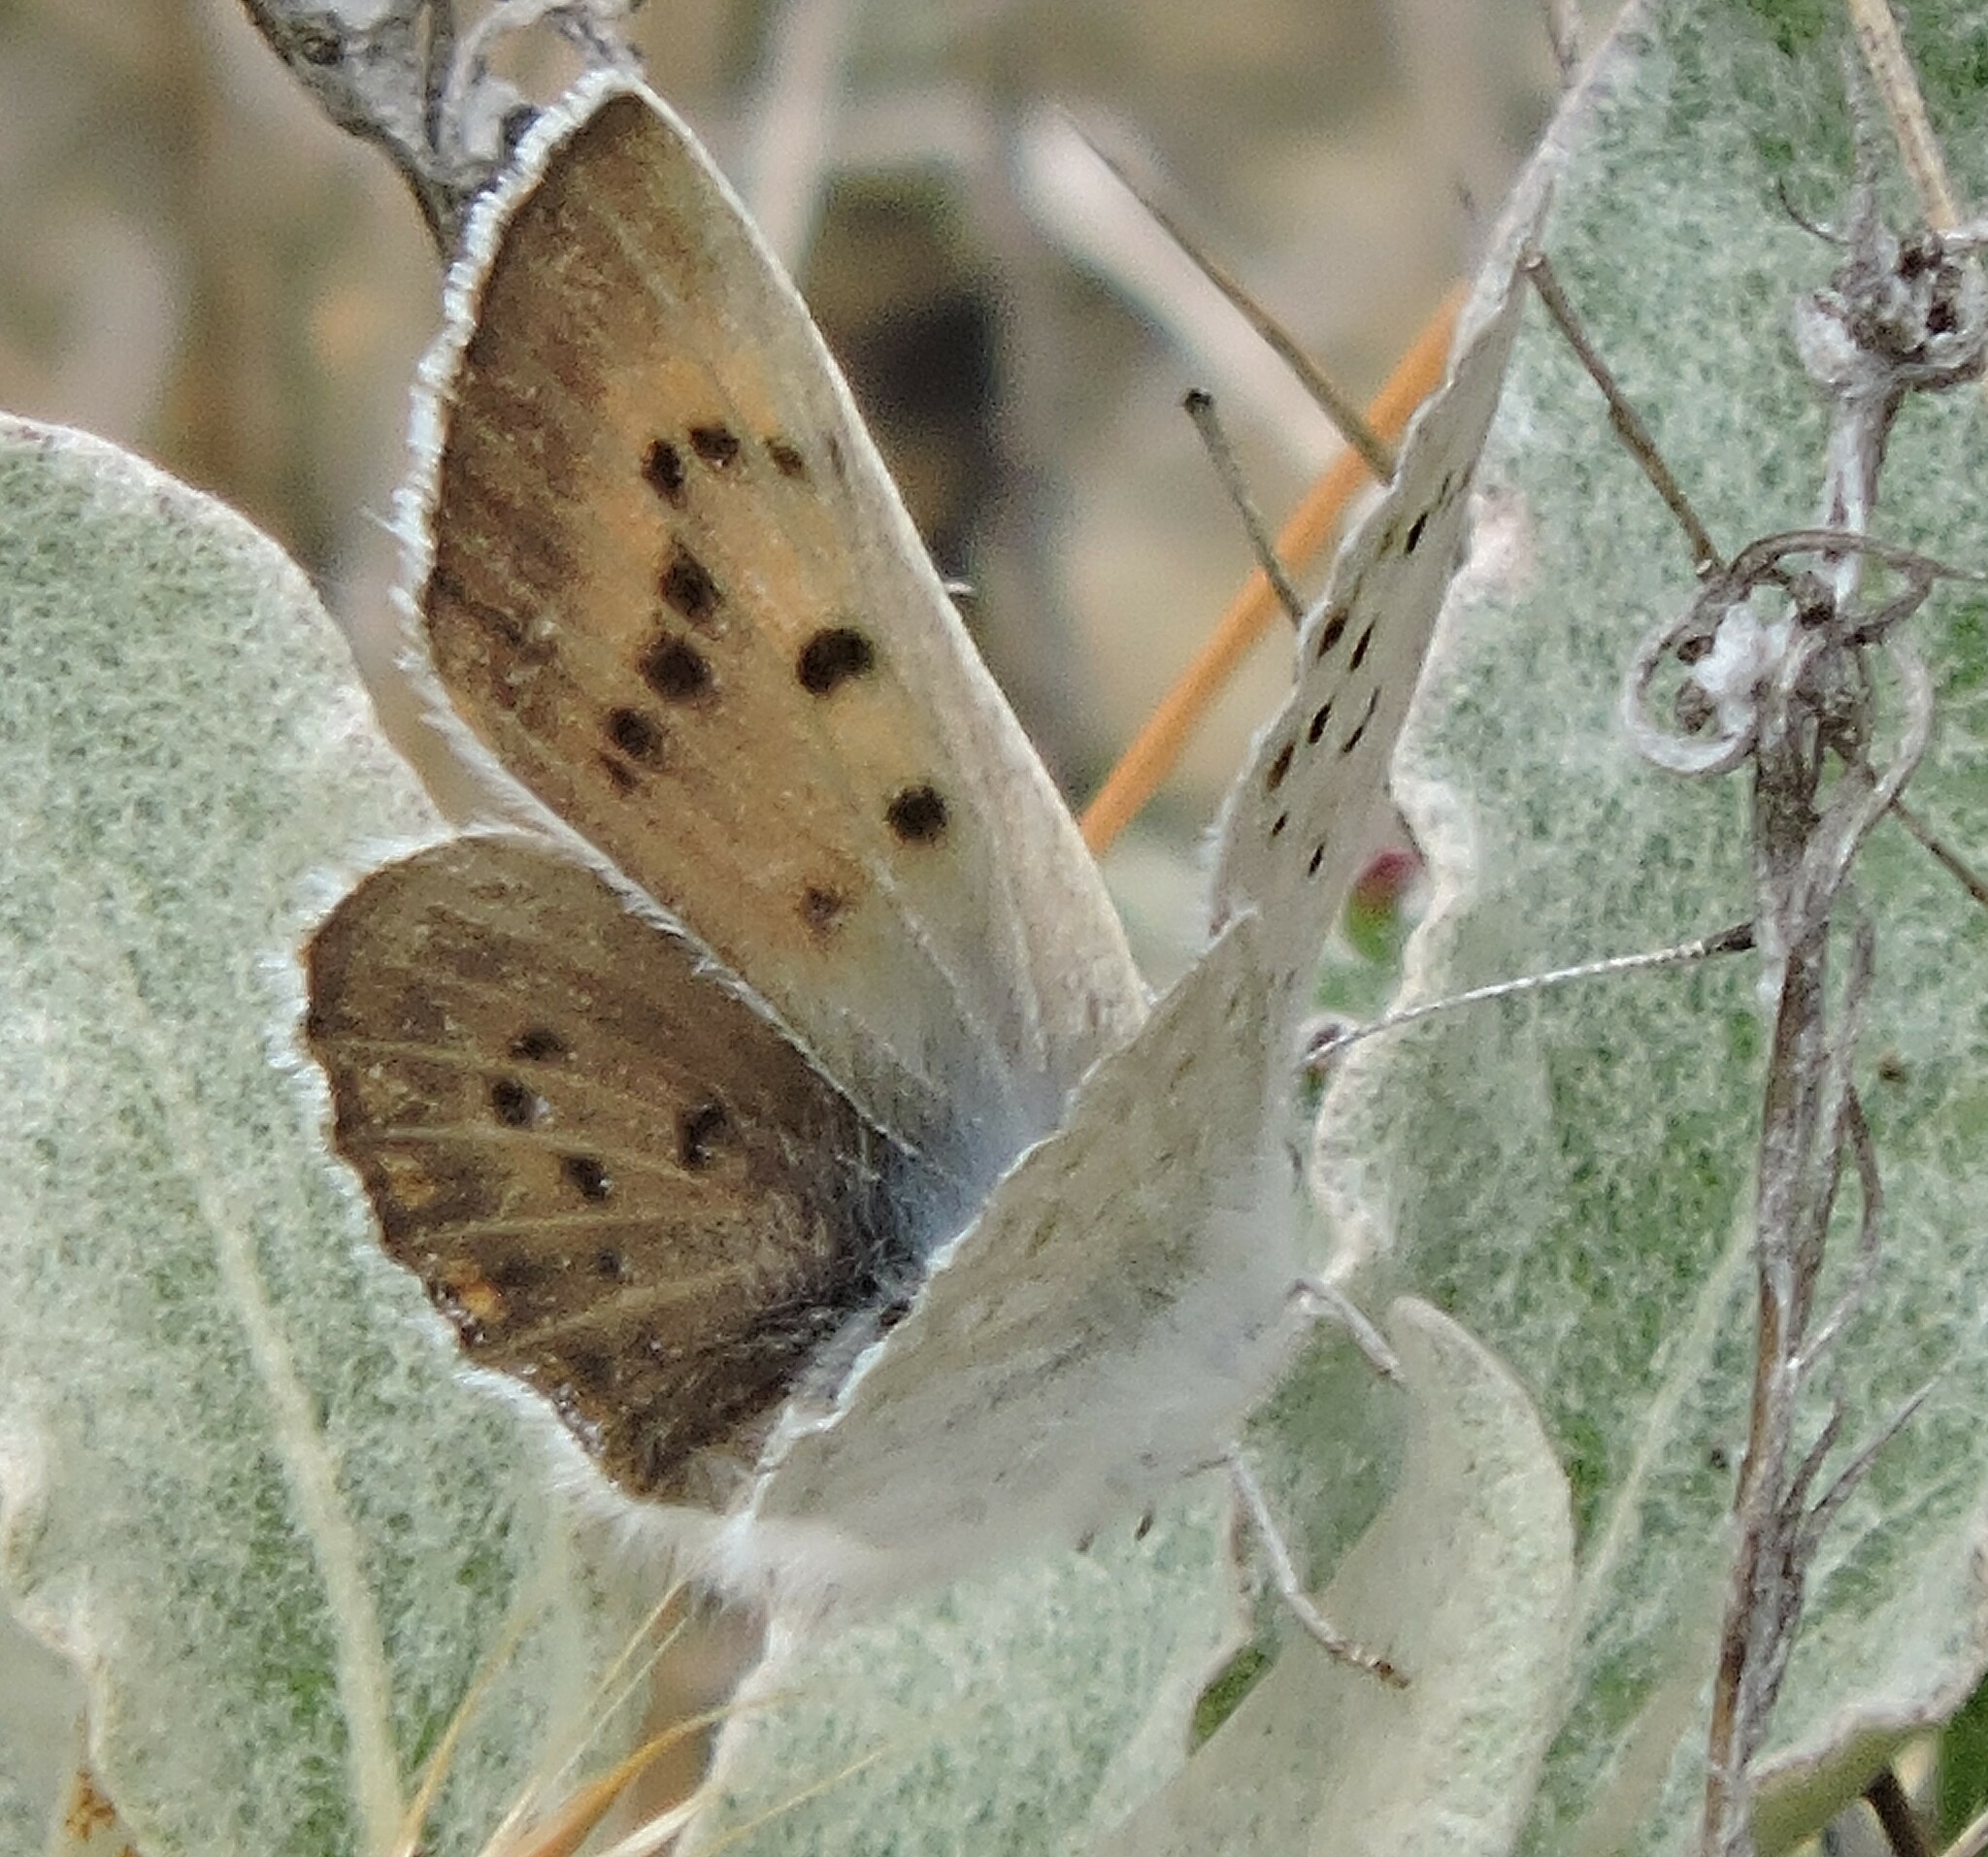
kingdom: Animalia
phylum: Arthropoda
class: Insecta
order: Lepidoptera
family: Lycaenidae
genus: Tharsalea
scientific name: Tharsalea heteronea
